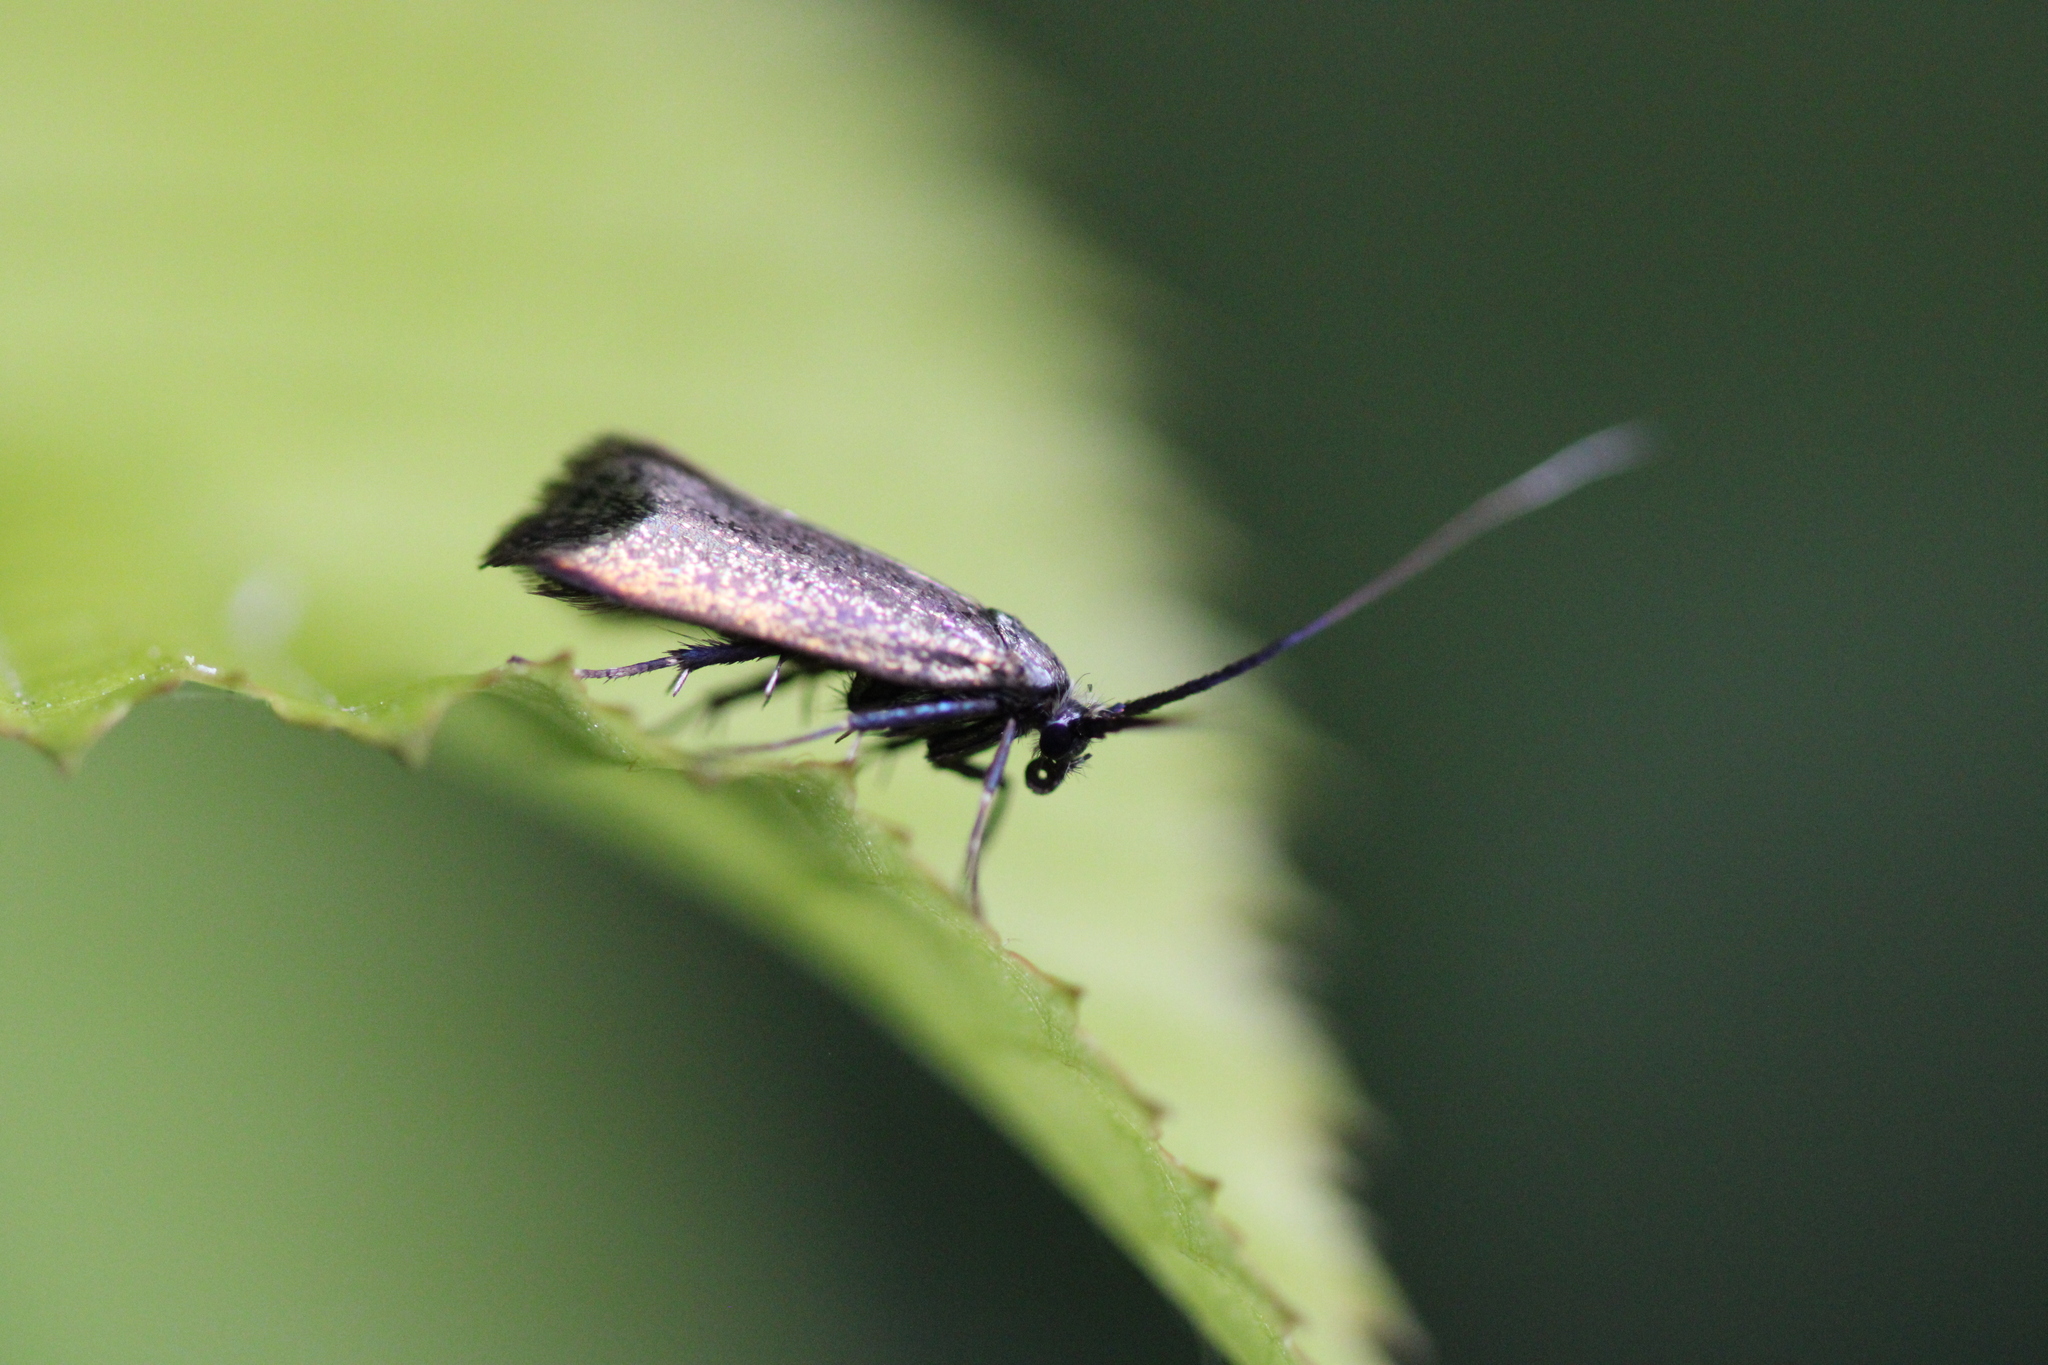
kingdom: Animalia
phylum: Arthropoda
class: Insecta
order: Lepidoptera
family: Adelidae
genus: Adela
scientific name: Adela viridella
